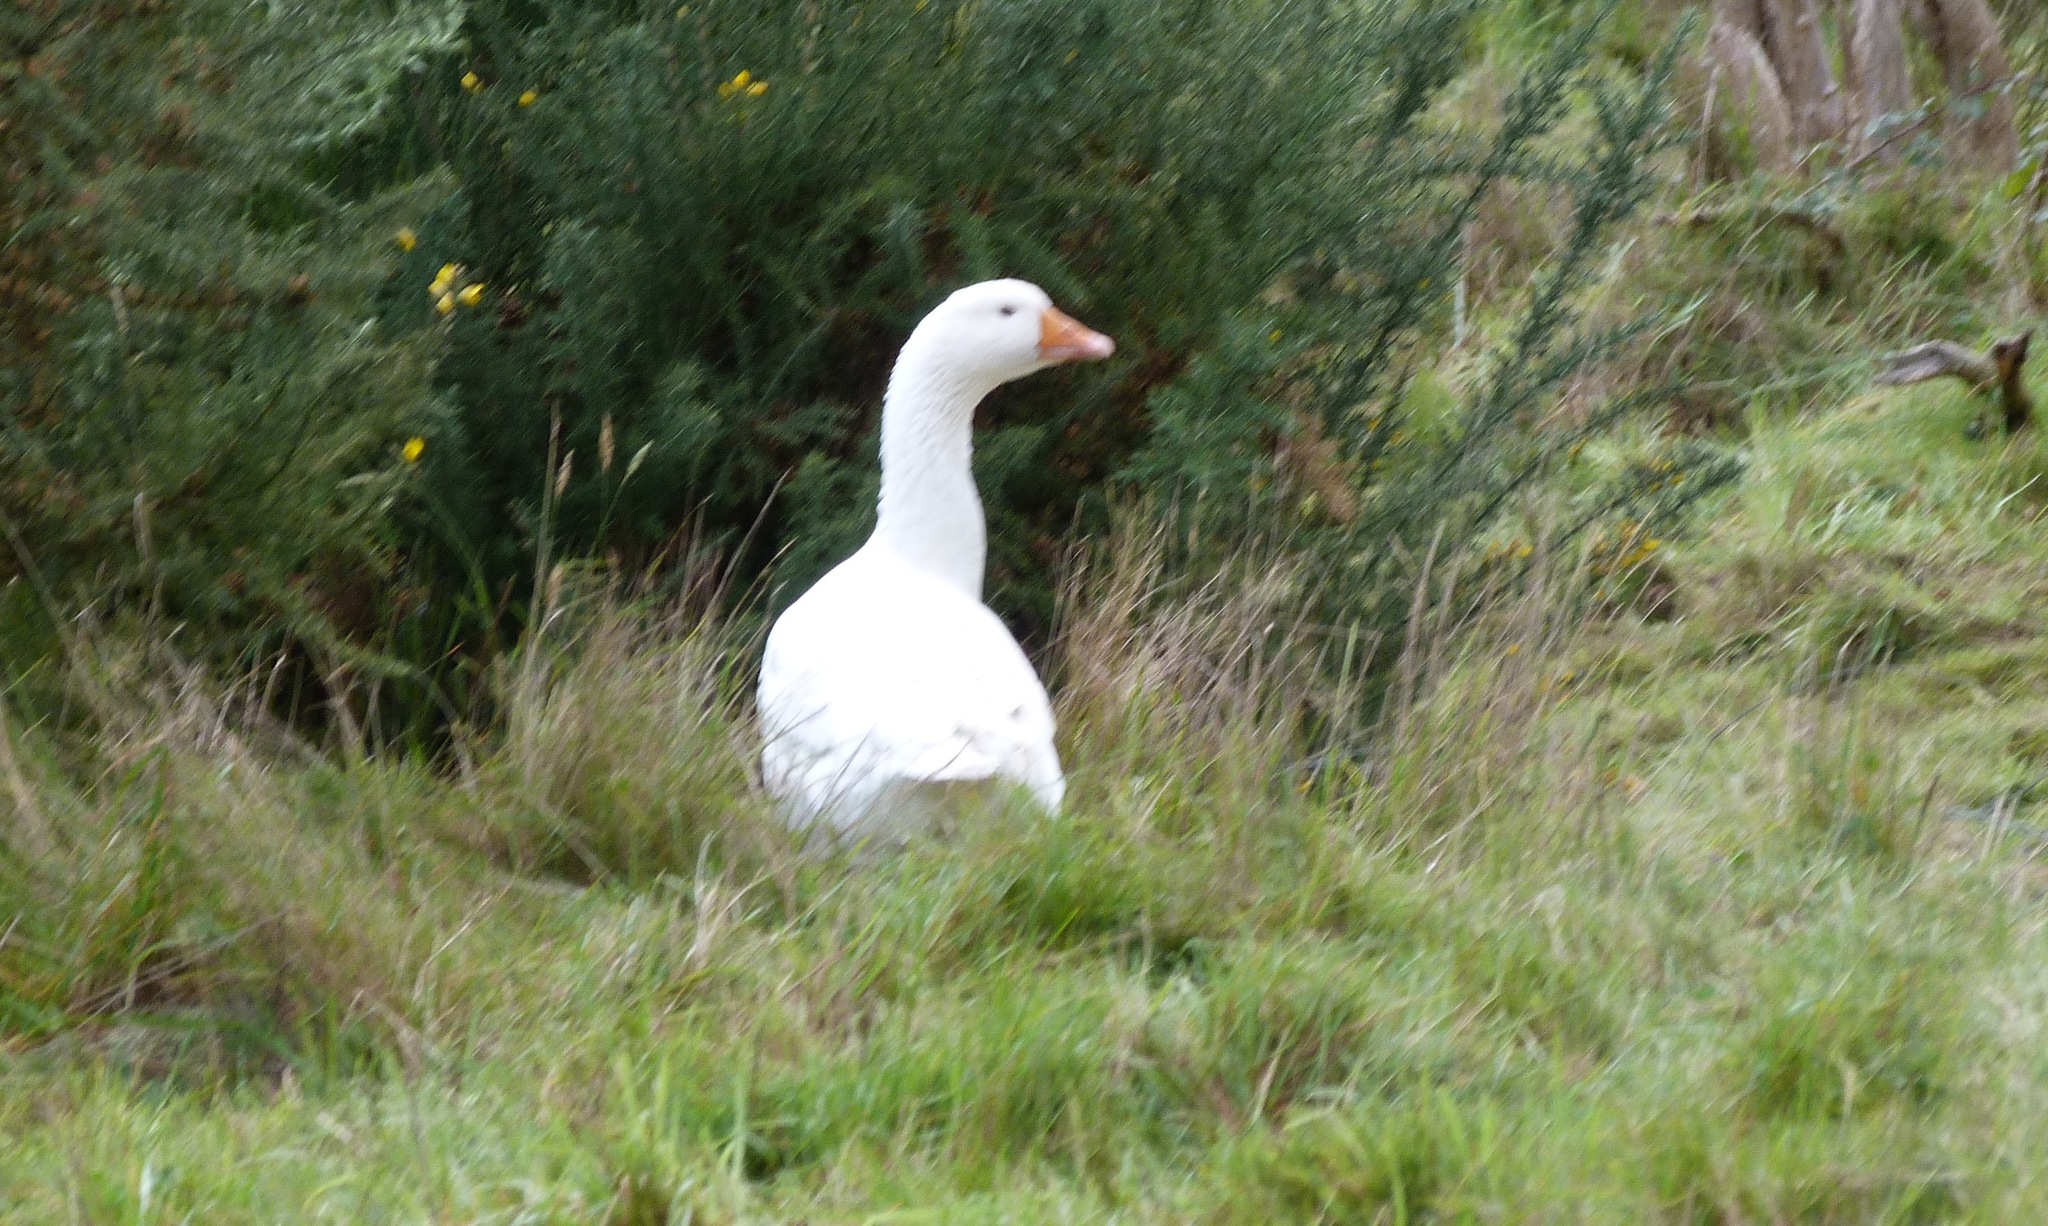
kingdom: Animalia
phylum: Chordata
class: Aves
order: Anseriformes
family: Anatidae
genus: Anser
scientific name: Anser anser
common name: Greylag goose
